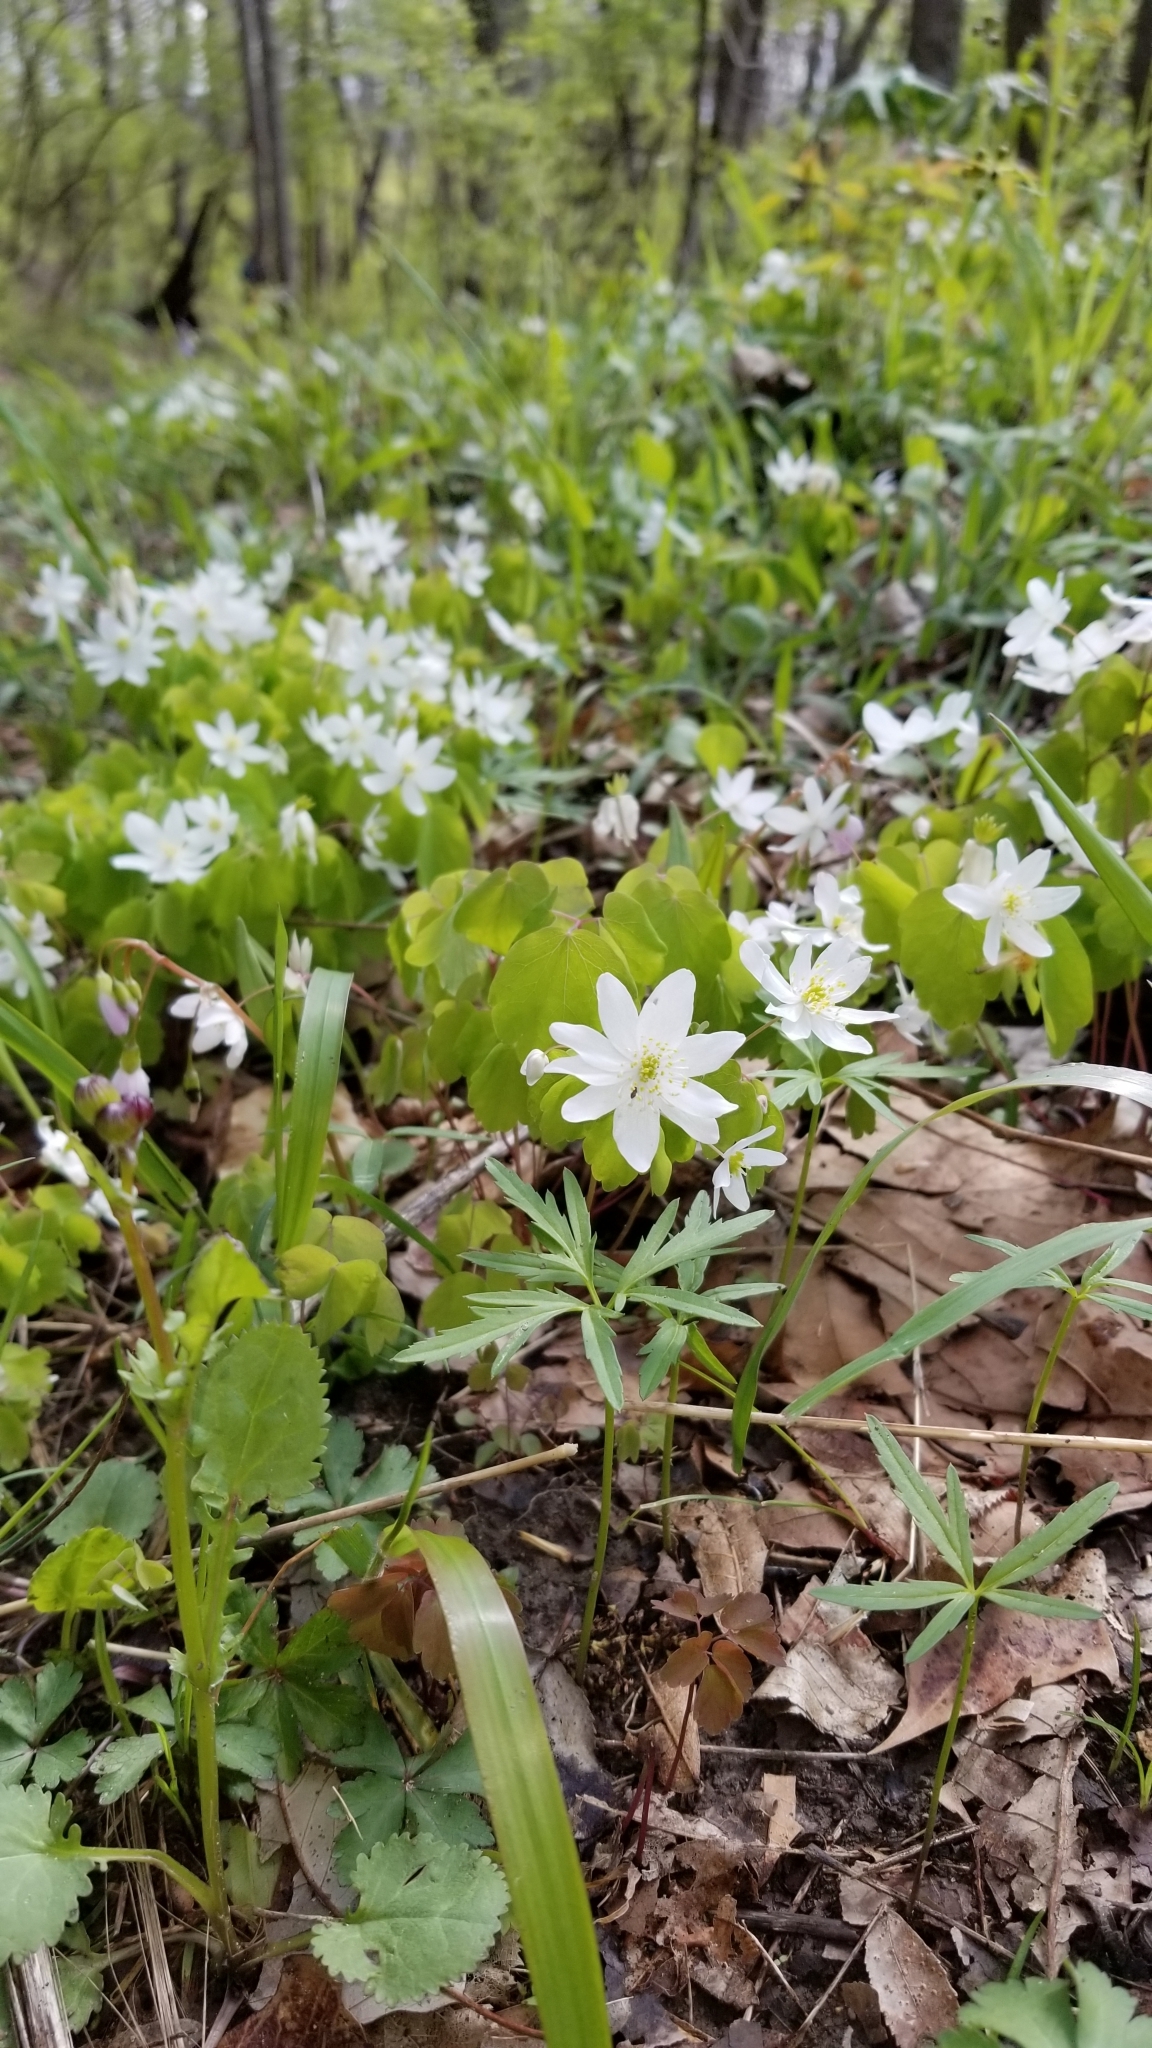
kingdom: Plantae
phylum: Tracheophyta
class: Magnoliopsida
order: Ranunculales
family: Ranunculaceae
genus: Thalictrum
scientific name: Thalictrum thalictroides
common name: Rue-anemone
